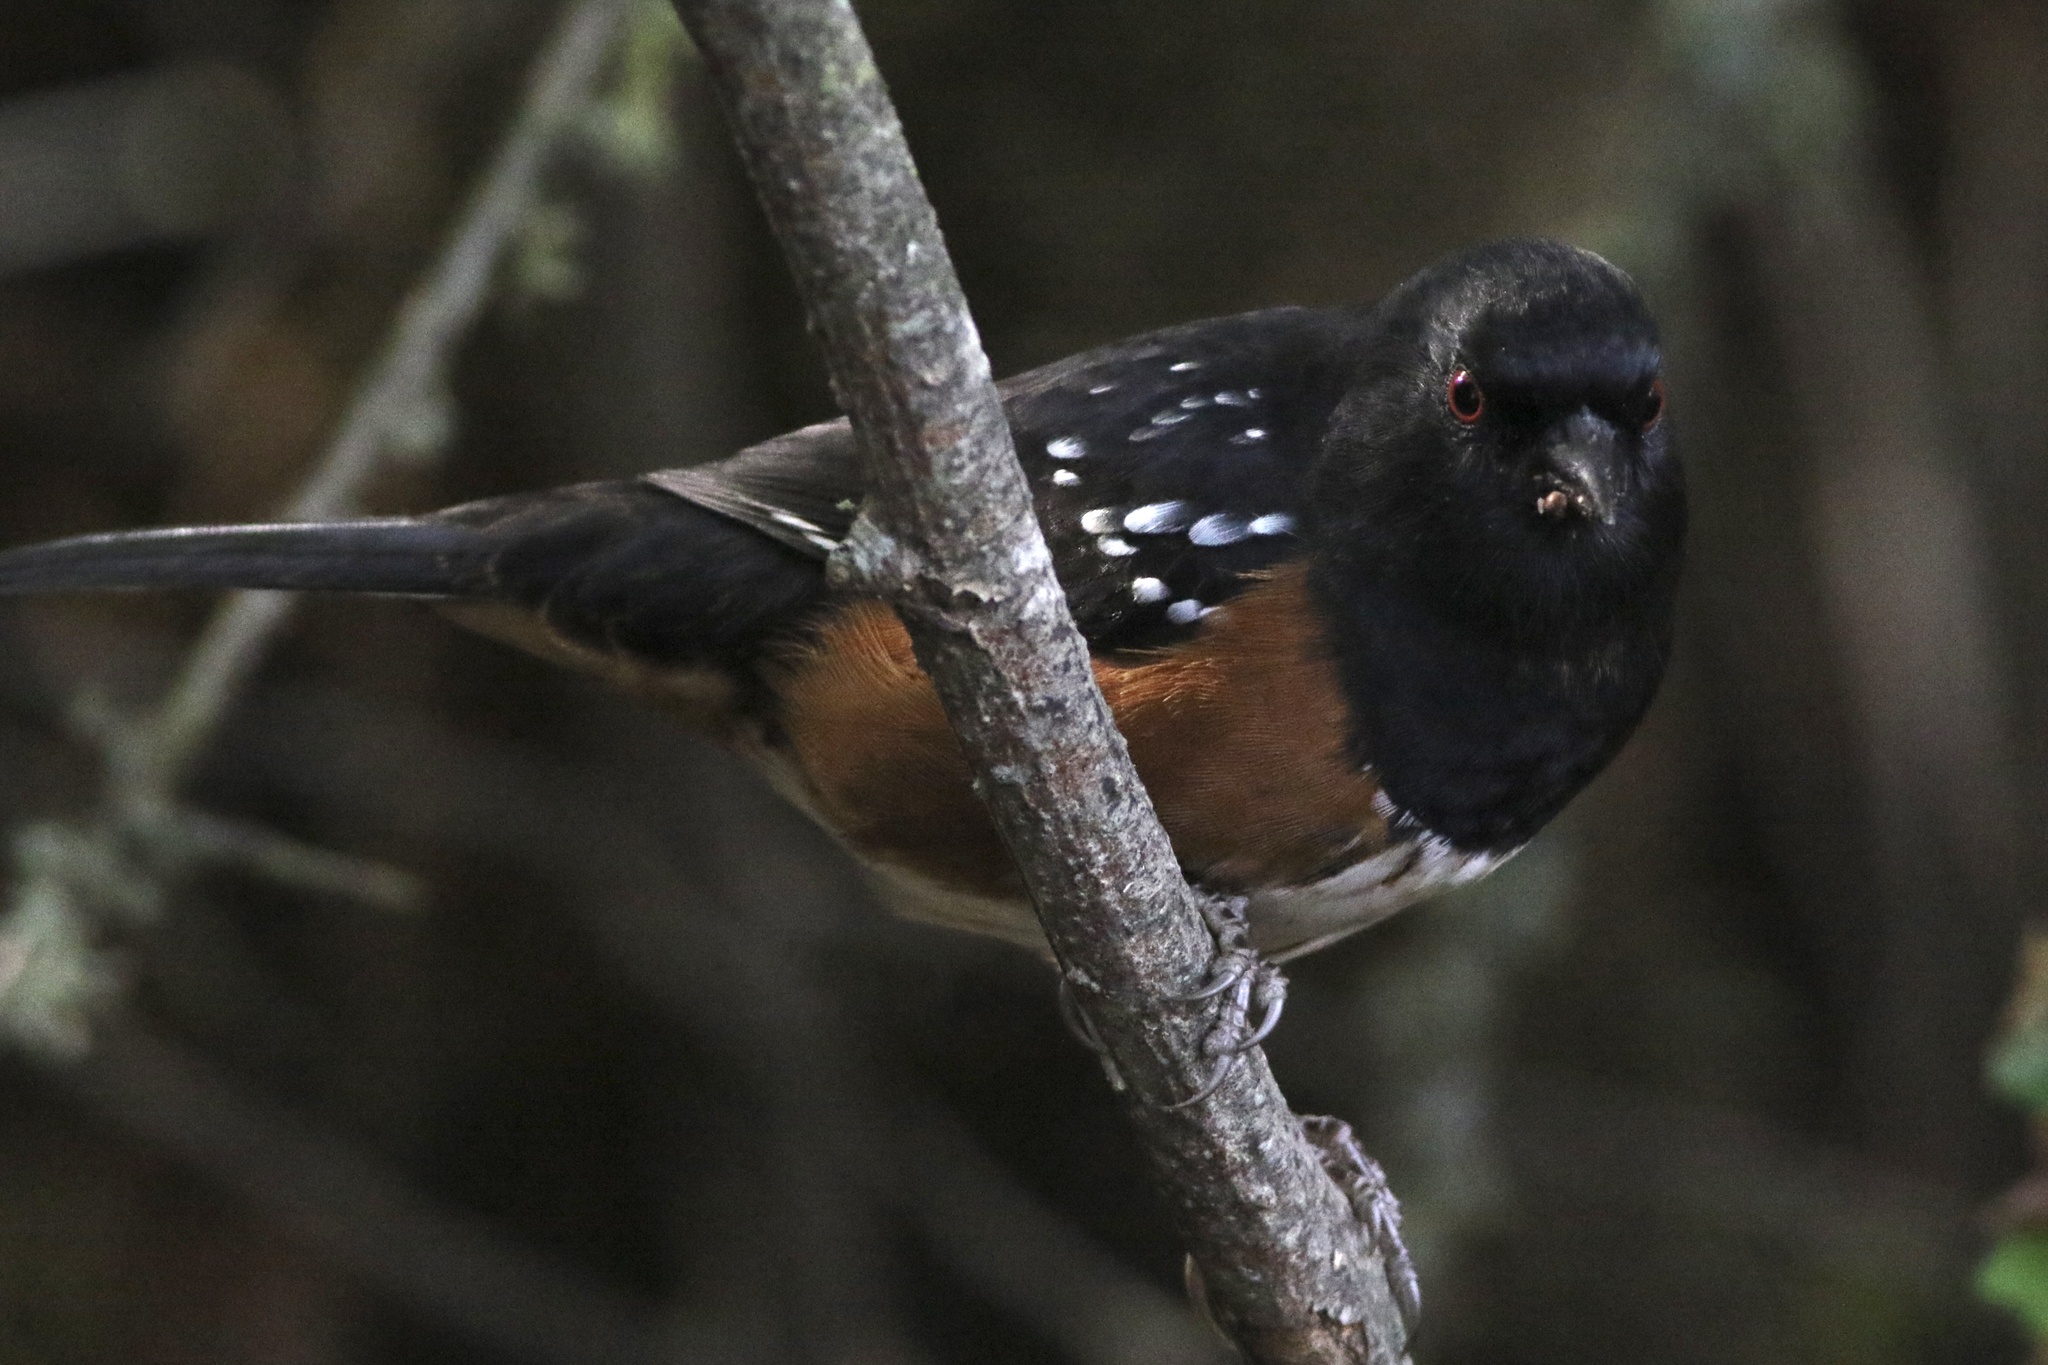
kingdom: Animalia
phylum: Chordata
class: Aves
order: Passeriformes
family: Passerellidae
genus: Pipilo
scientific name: Pipilo maculatus
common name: Spotted towhee
